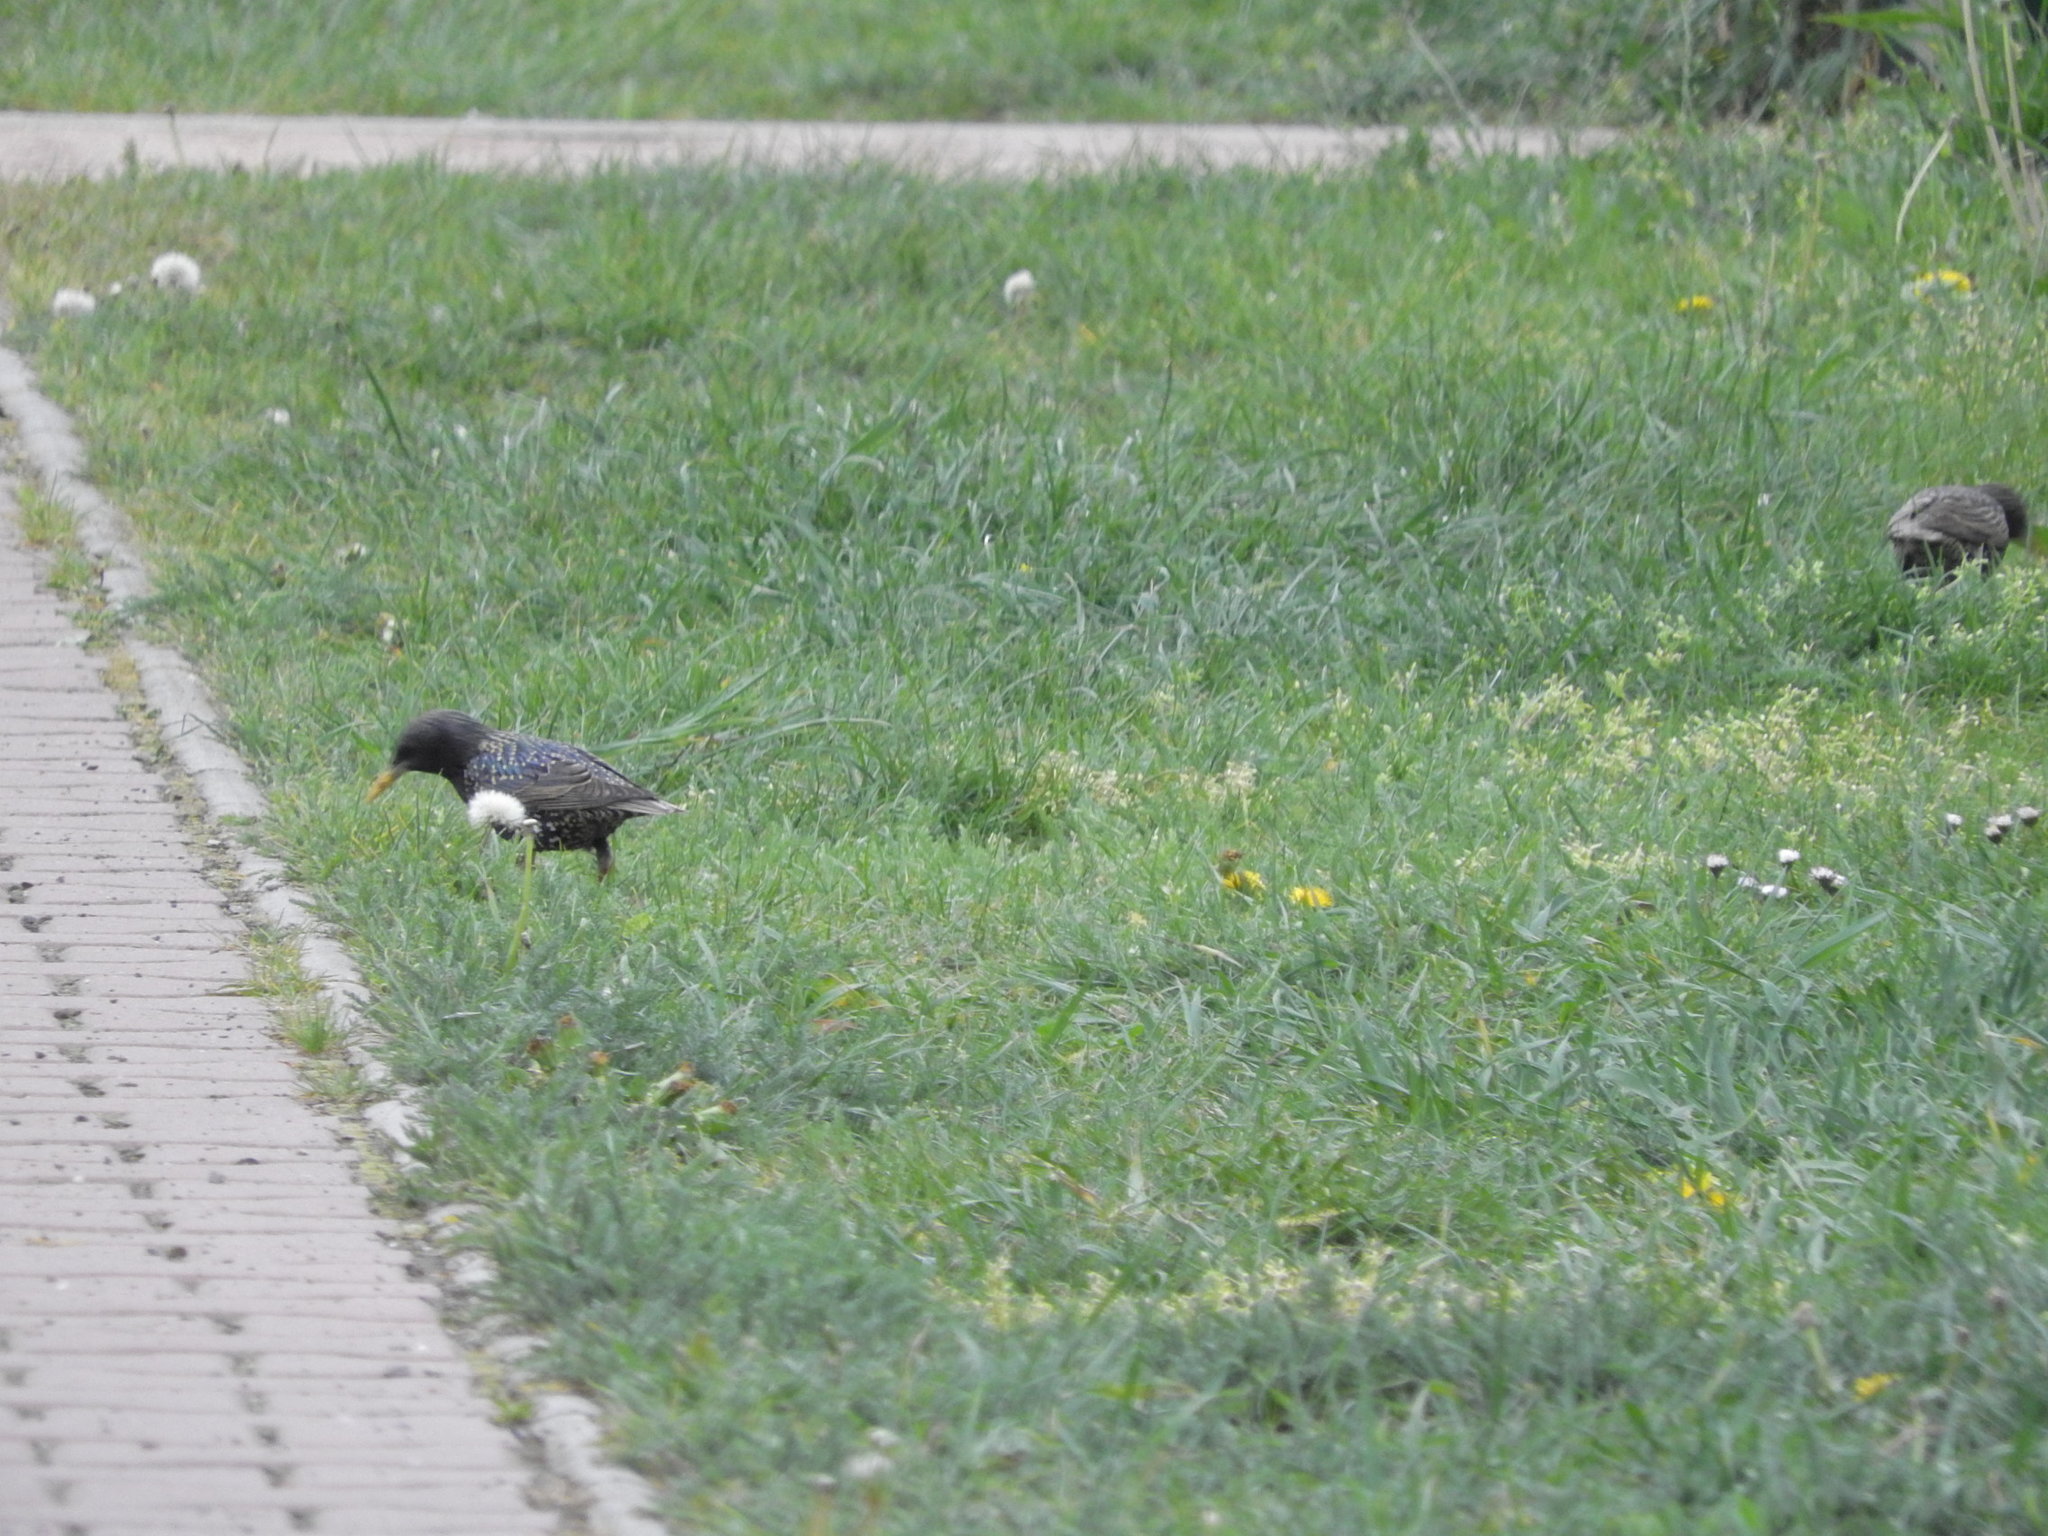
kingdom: Animalia
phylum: Chordata
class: Aves
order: Passeriformes
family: Sturnidae
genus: Sturnus
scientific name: Sturnus vulgaris
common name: Common starling
